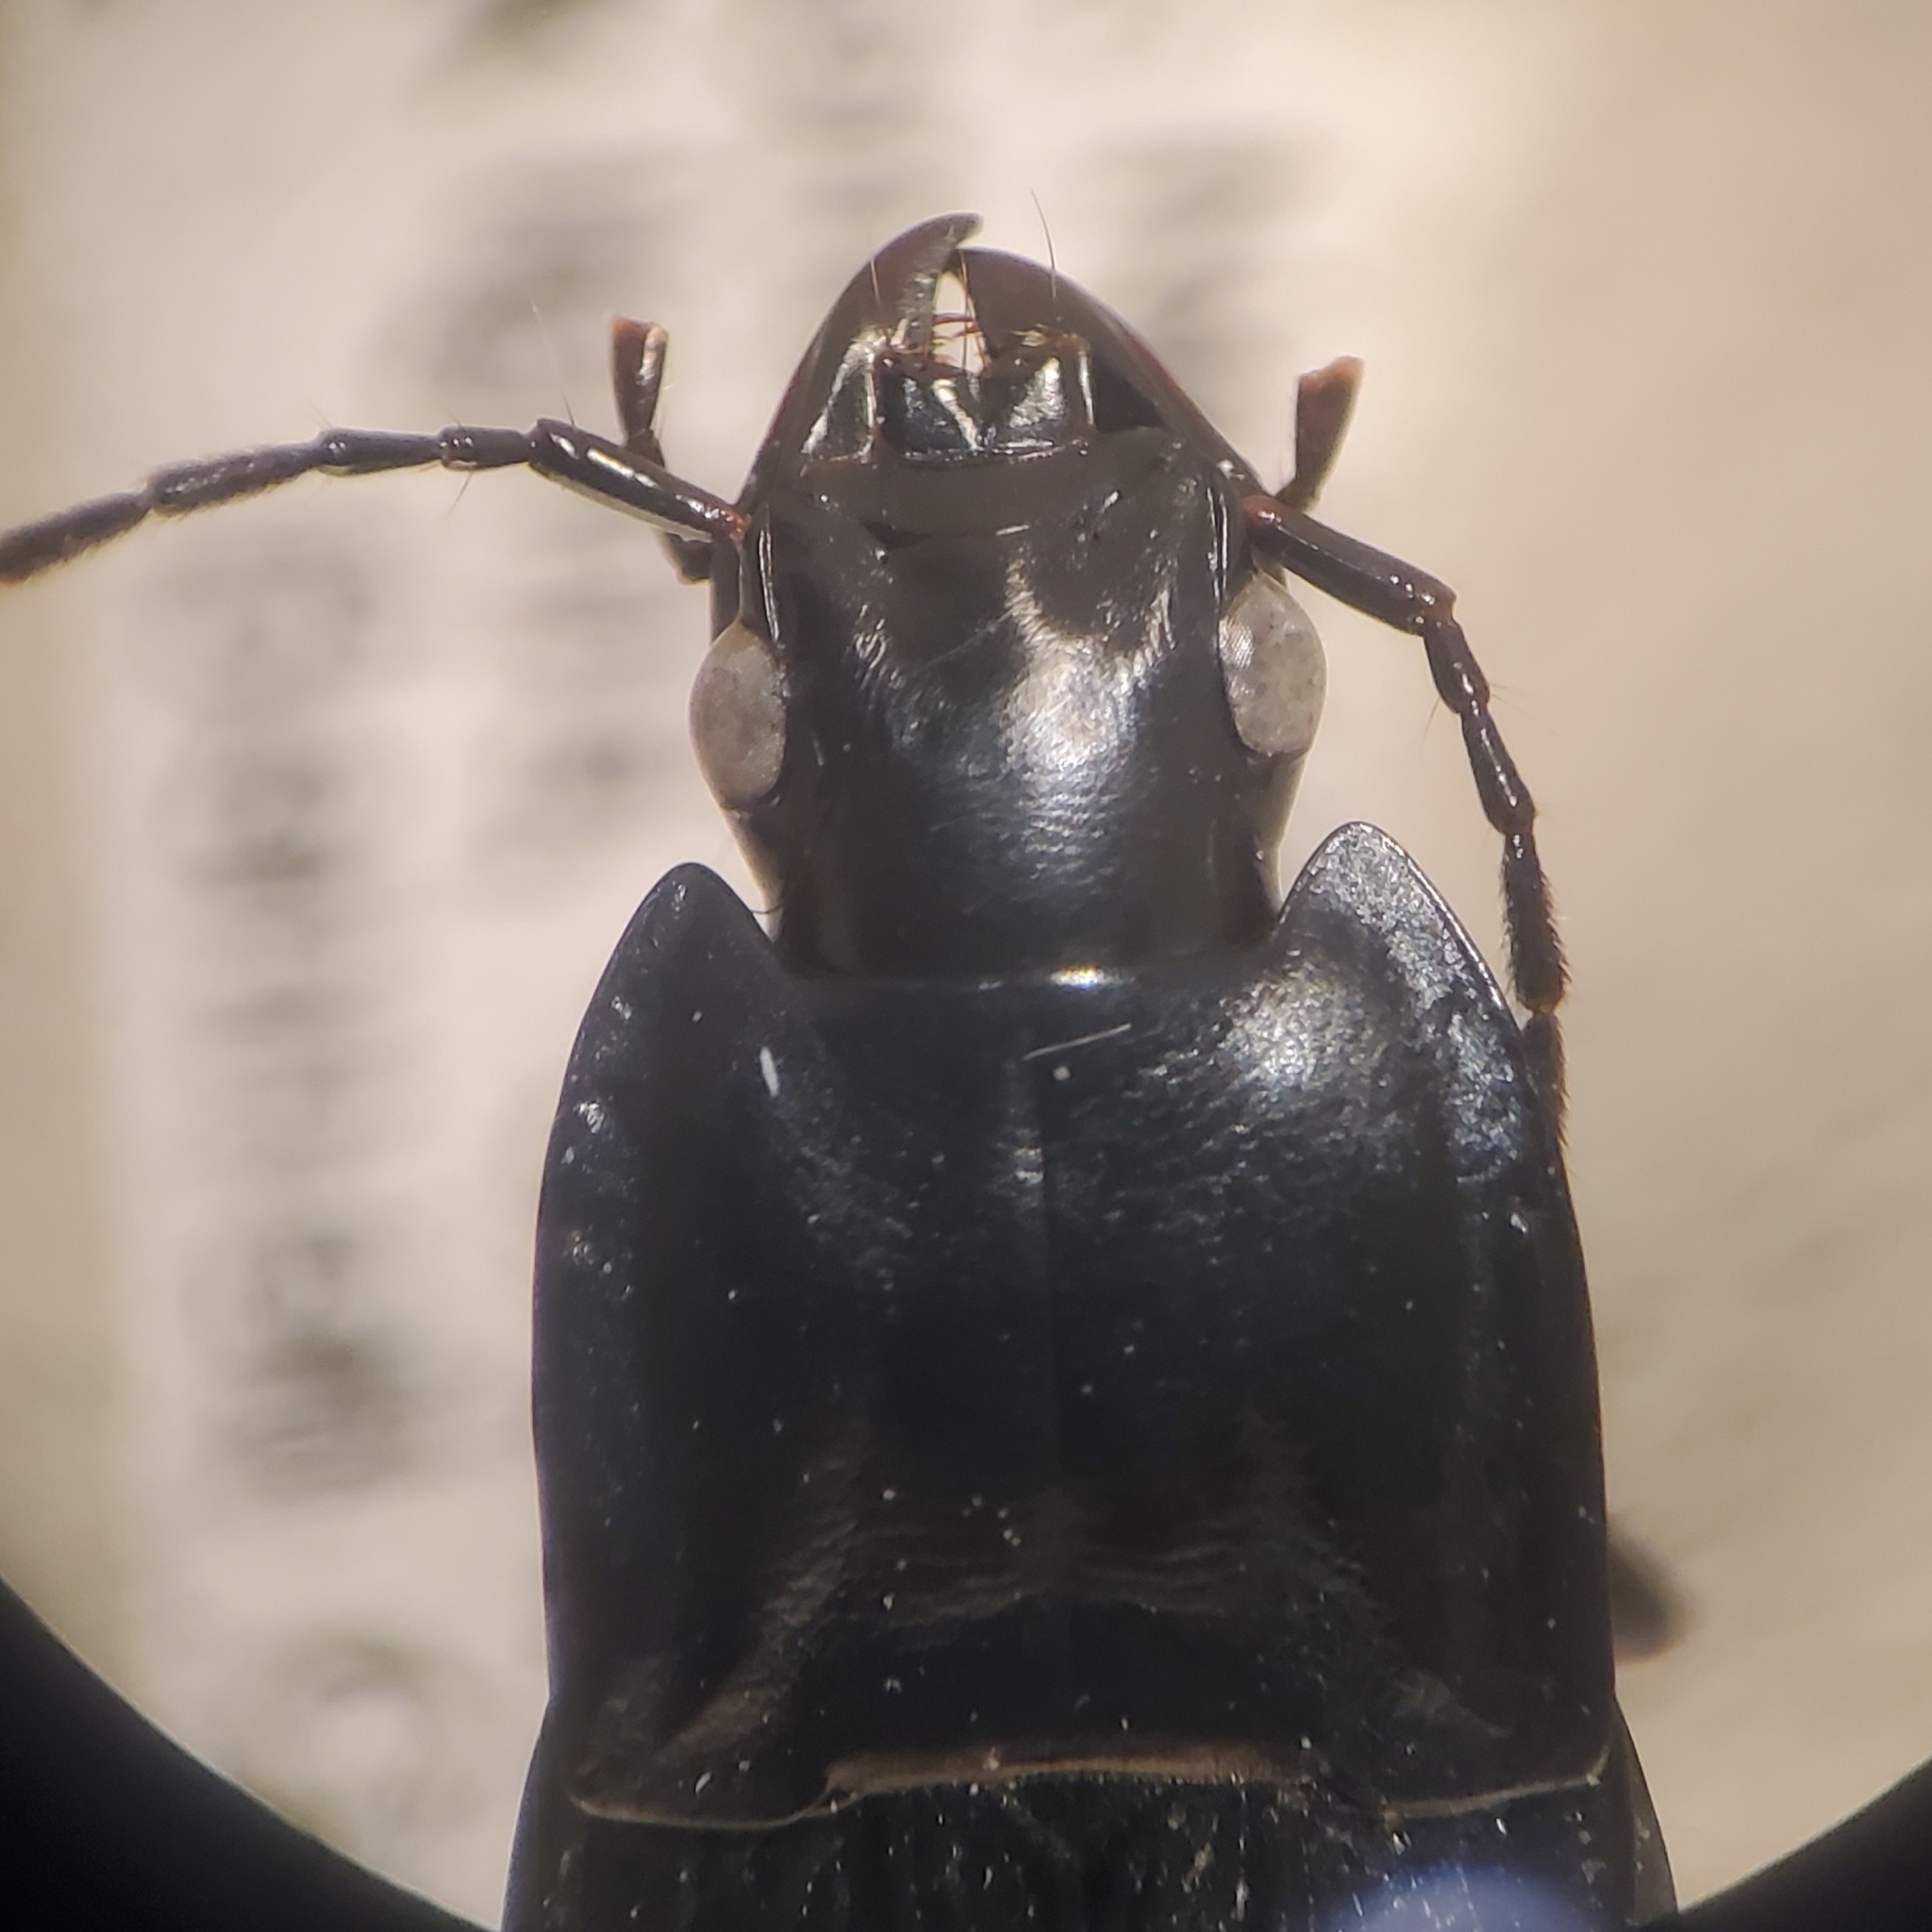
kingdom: Animalia
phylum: Arthropoda
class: Insecta
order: Coleoptera
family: Carabidae
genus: Dicaelus
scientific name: Dicaelus elongatus
